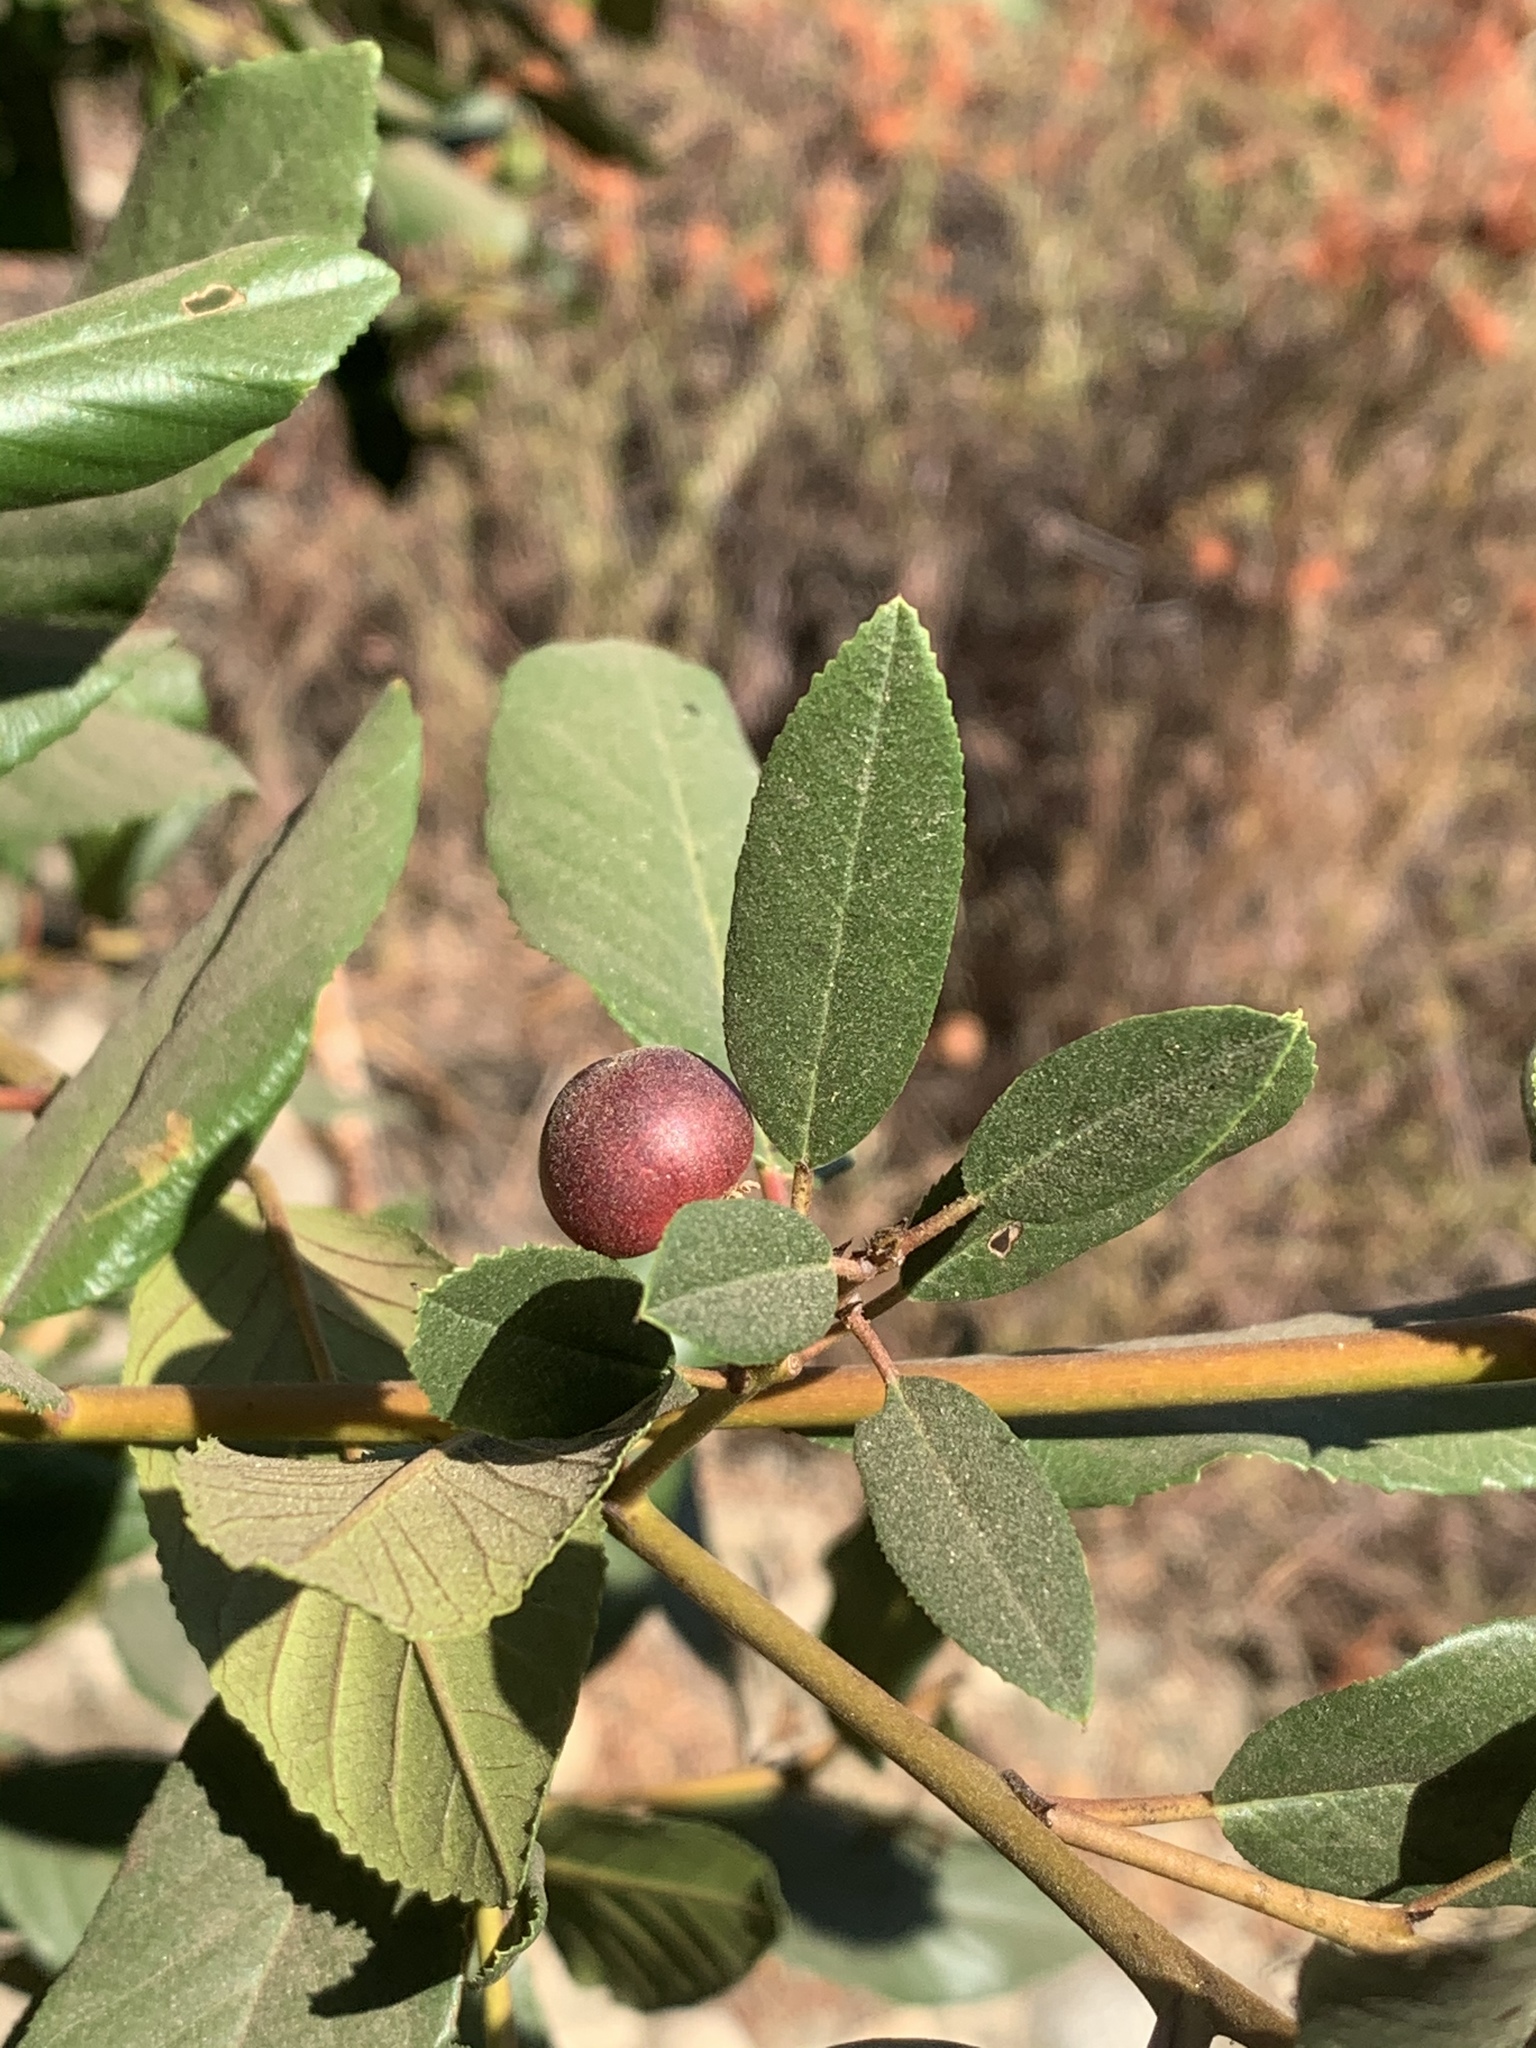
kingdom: Plantae
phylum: Tracheophyta
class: Magnoliopsida
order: Rosales
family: Rhamnaceae
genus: Frangula
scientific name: Frangula californica
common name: California buckthorn
